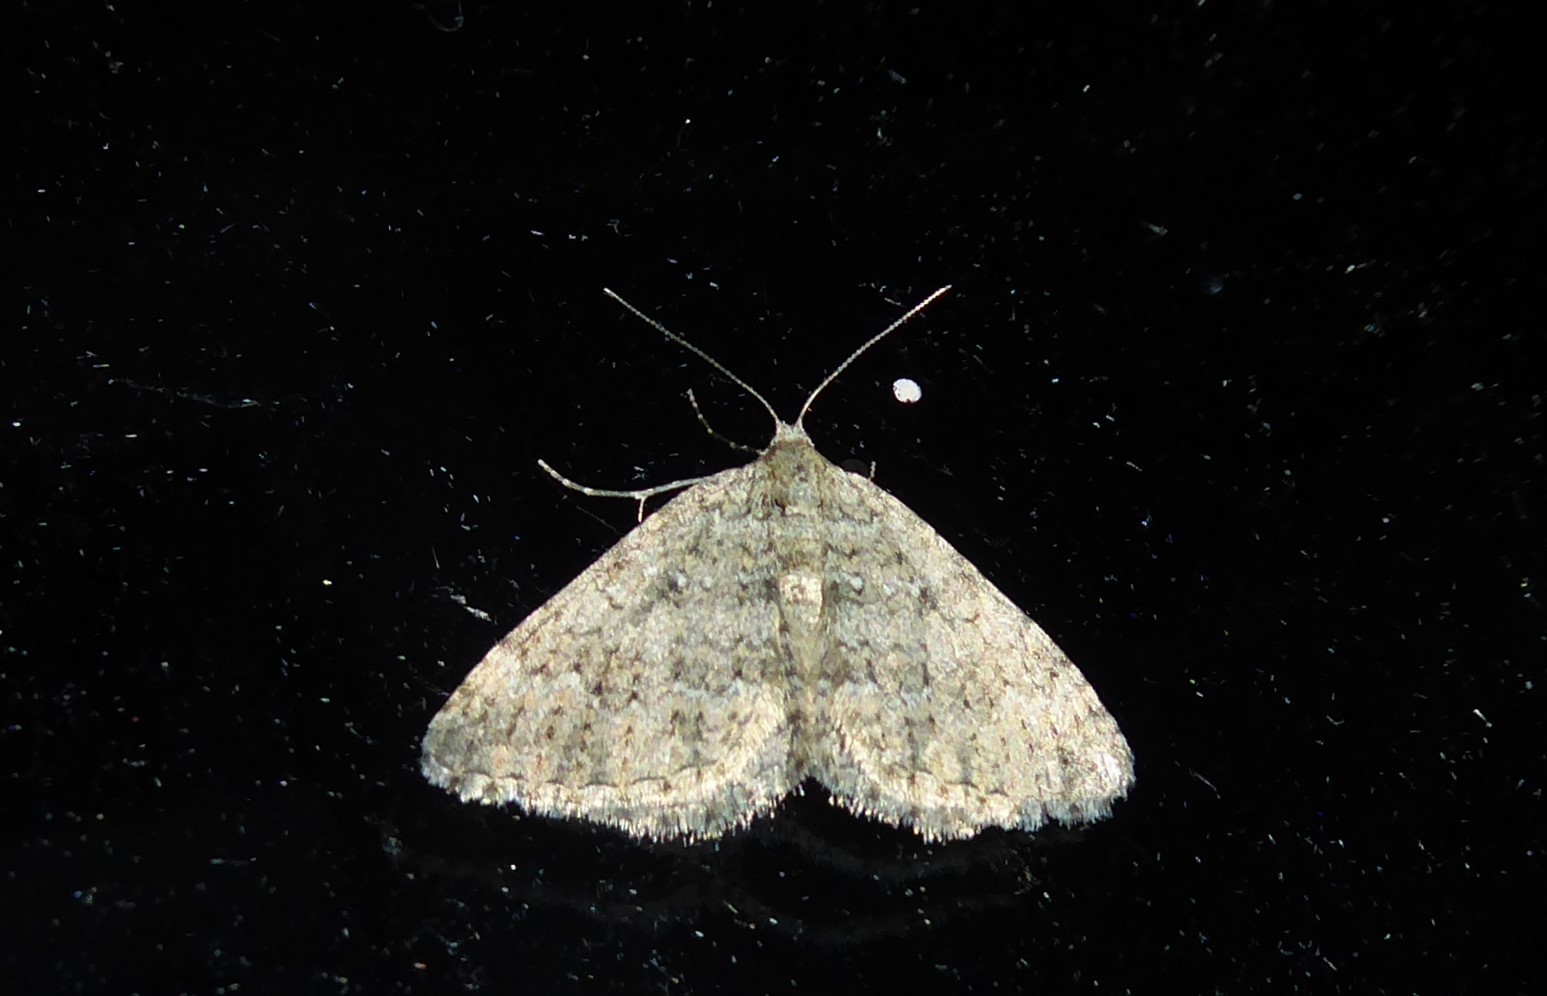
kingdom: Animalia
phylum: Arthropoda
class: Insecta
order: Lepidoptera
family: Geometridae
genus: Helastia
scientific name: Helastia corcularia
